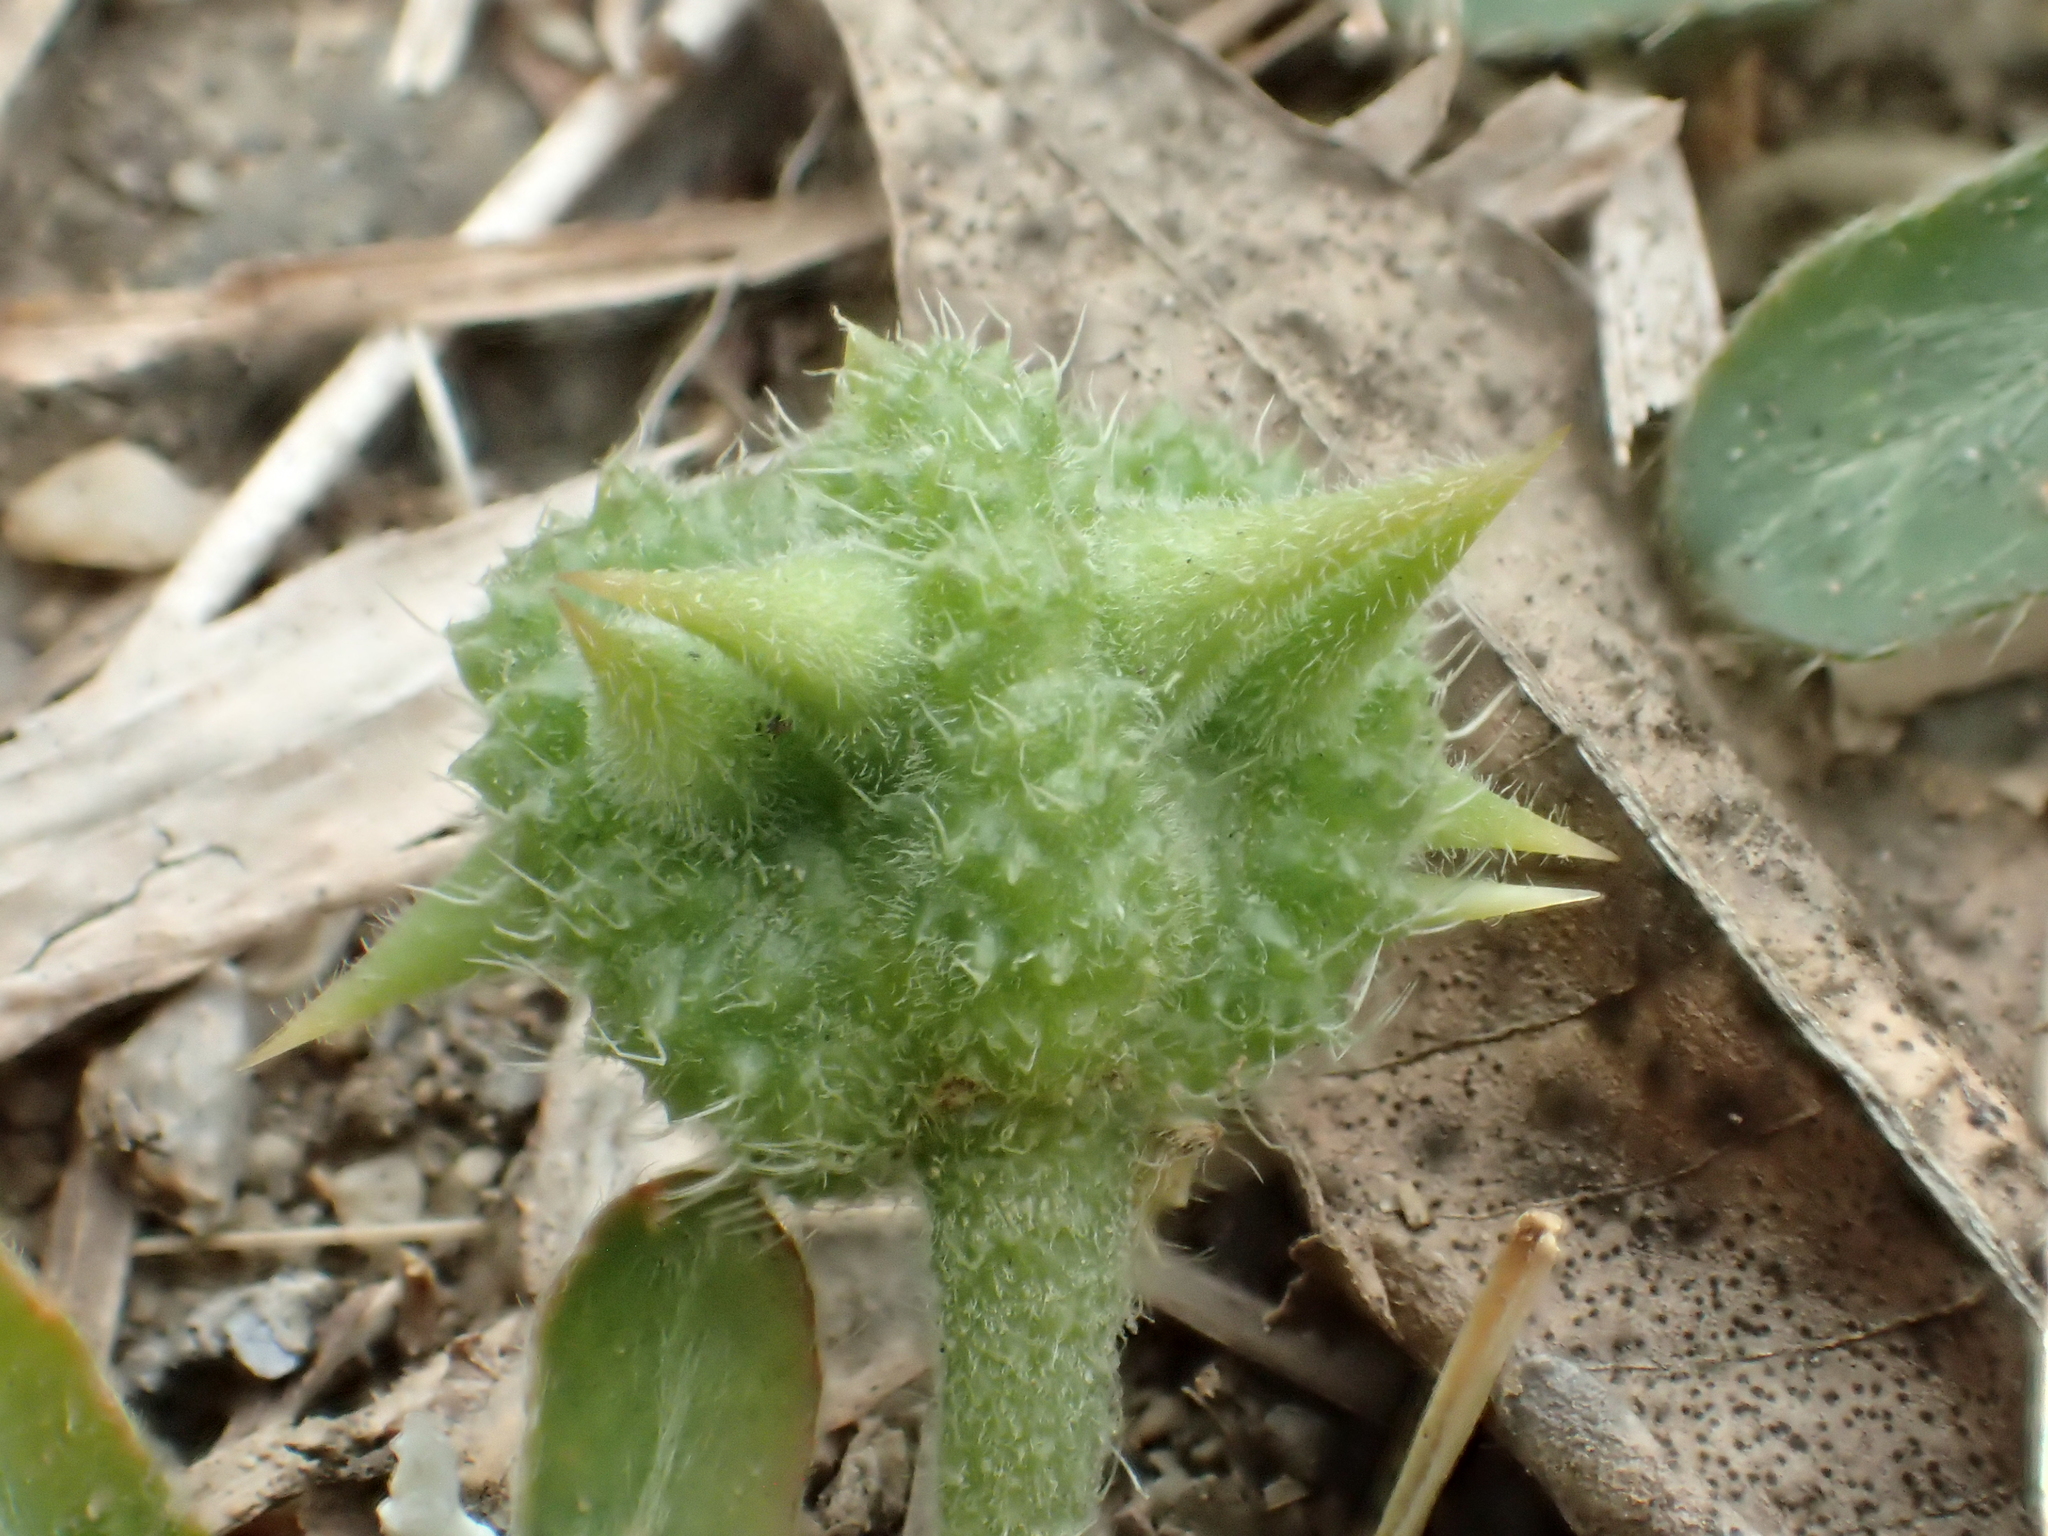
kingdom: Plantae
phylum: Tracheophyta
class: Magnoliopsida
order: Zygophyllales
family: Zygophyllaceae
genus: Tribulus
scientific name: Tribulus cistoides
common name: Jamaican feverplant
